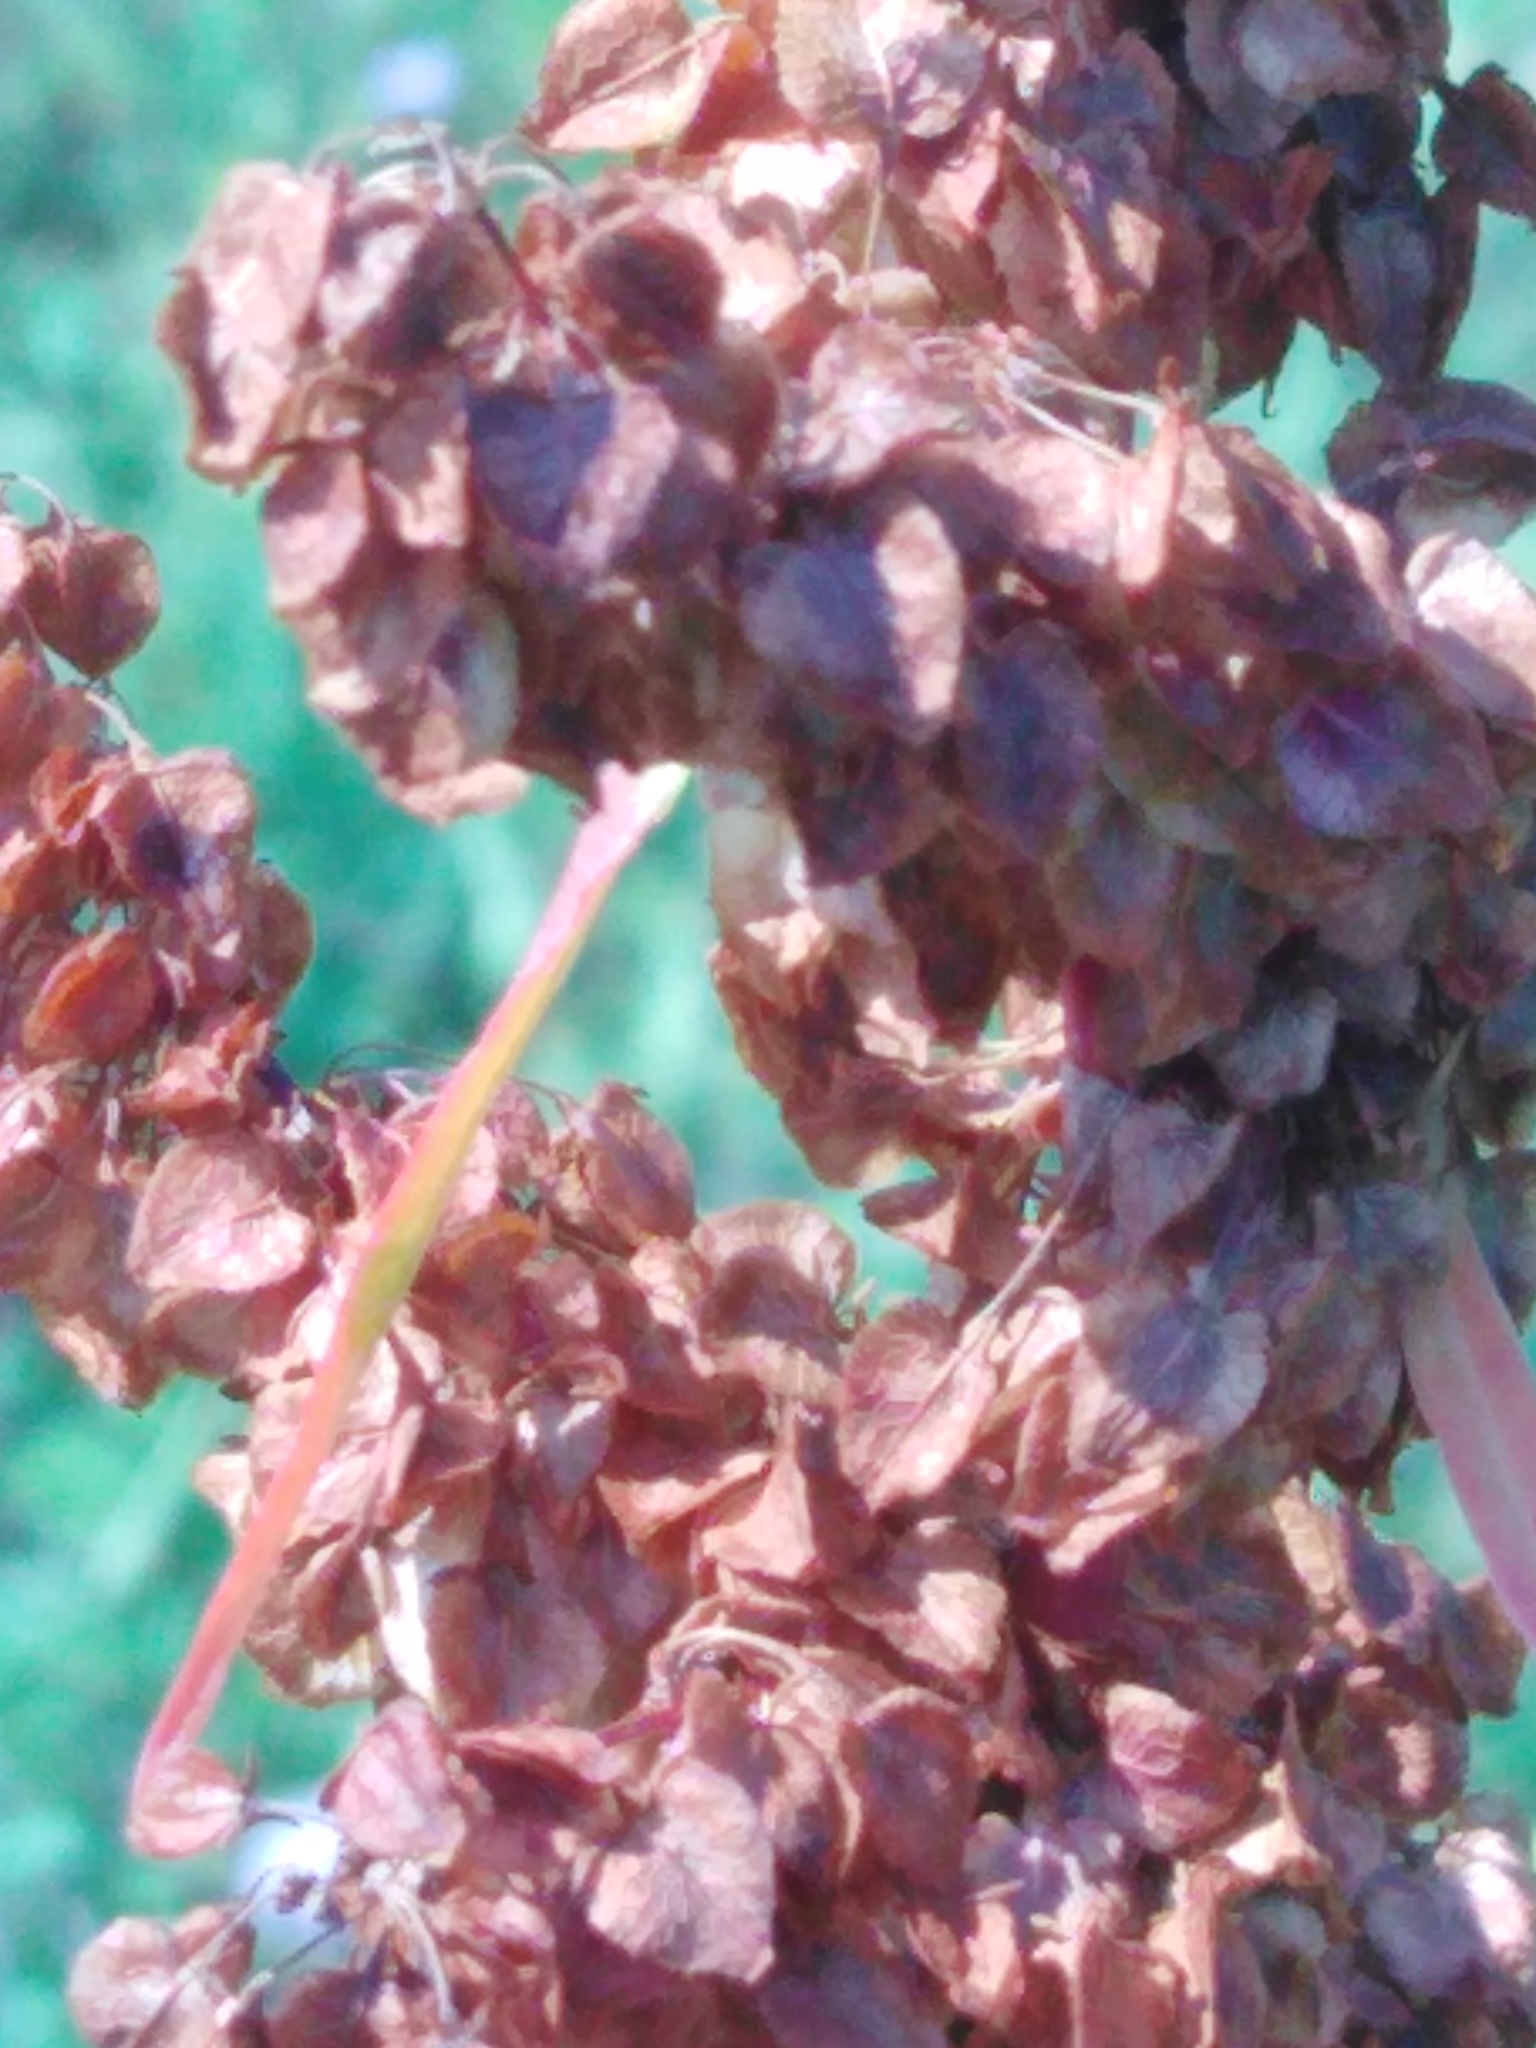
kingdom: Plantae
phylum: Tracheophyta
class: Magnoliopsida
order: Caryophyllales
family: Polygonaceae
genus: Rumex
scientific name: Rumex pseudonatronatus
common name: Field dock
